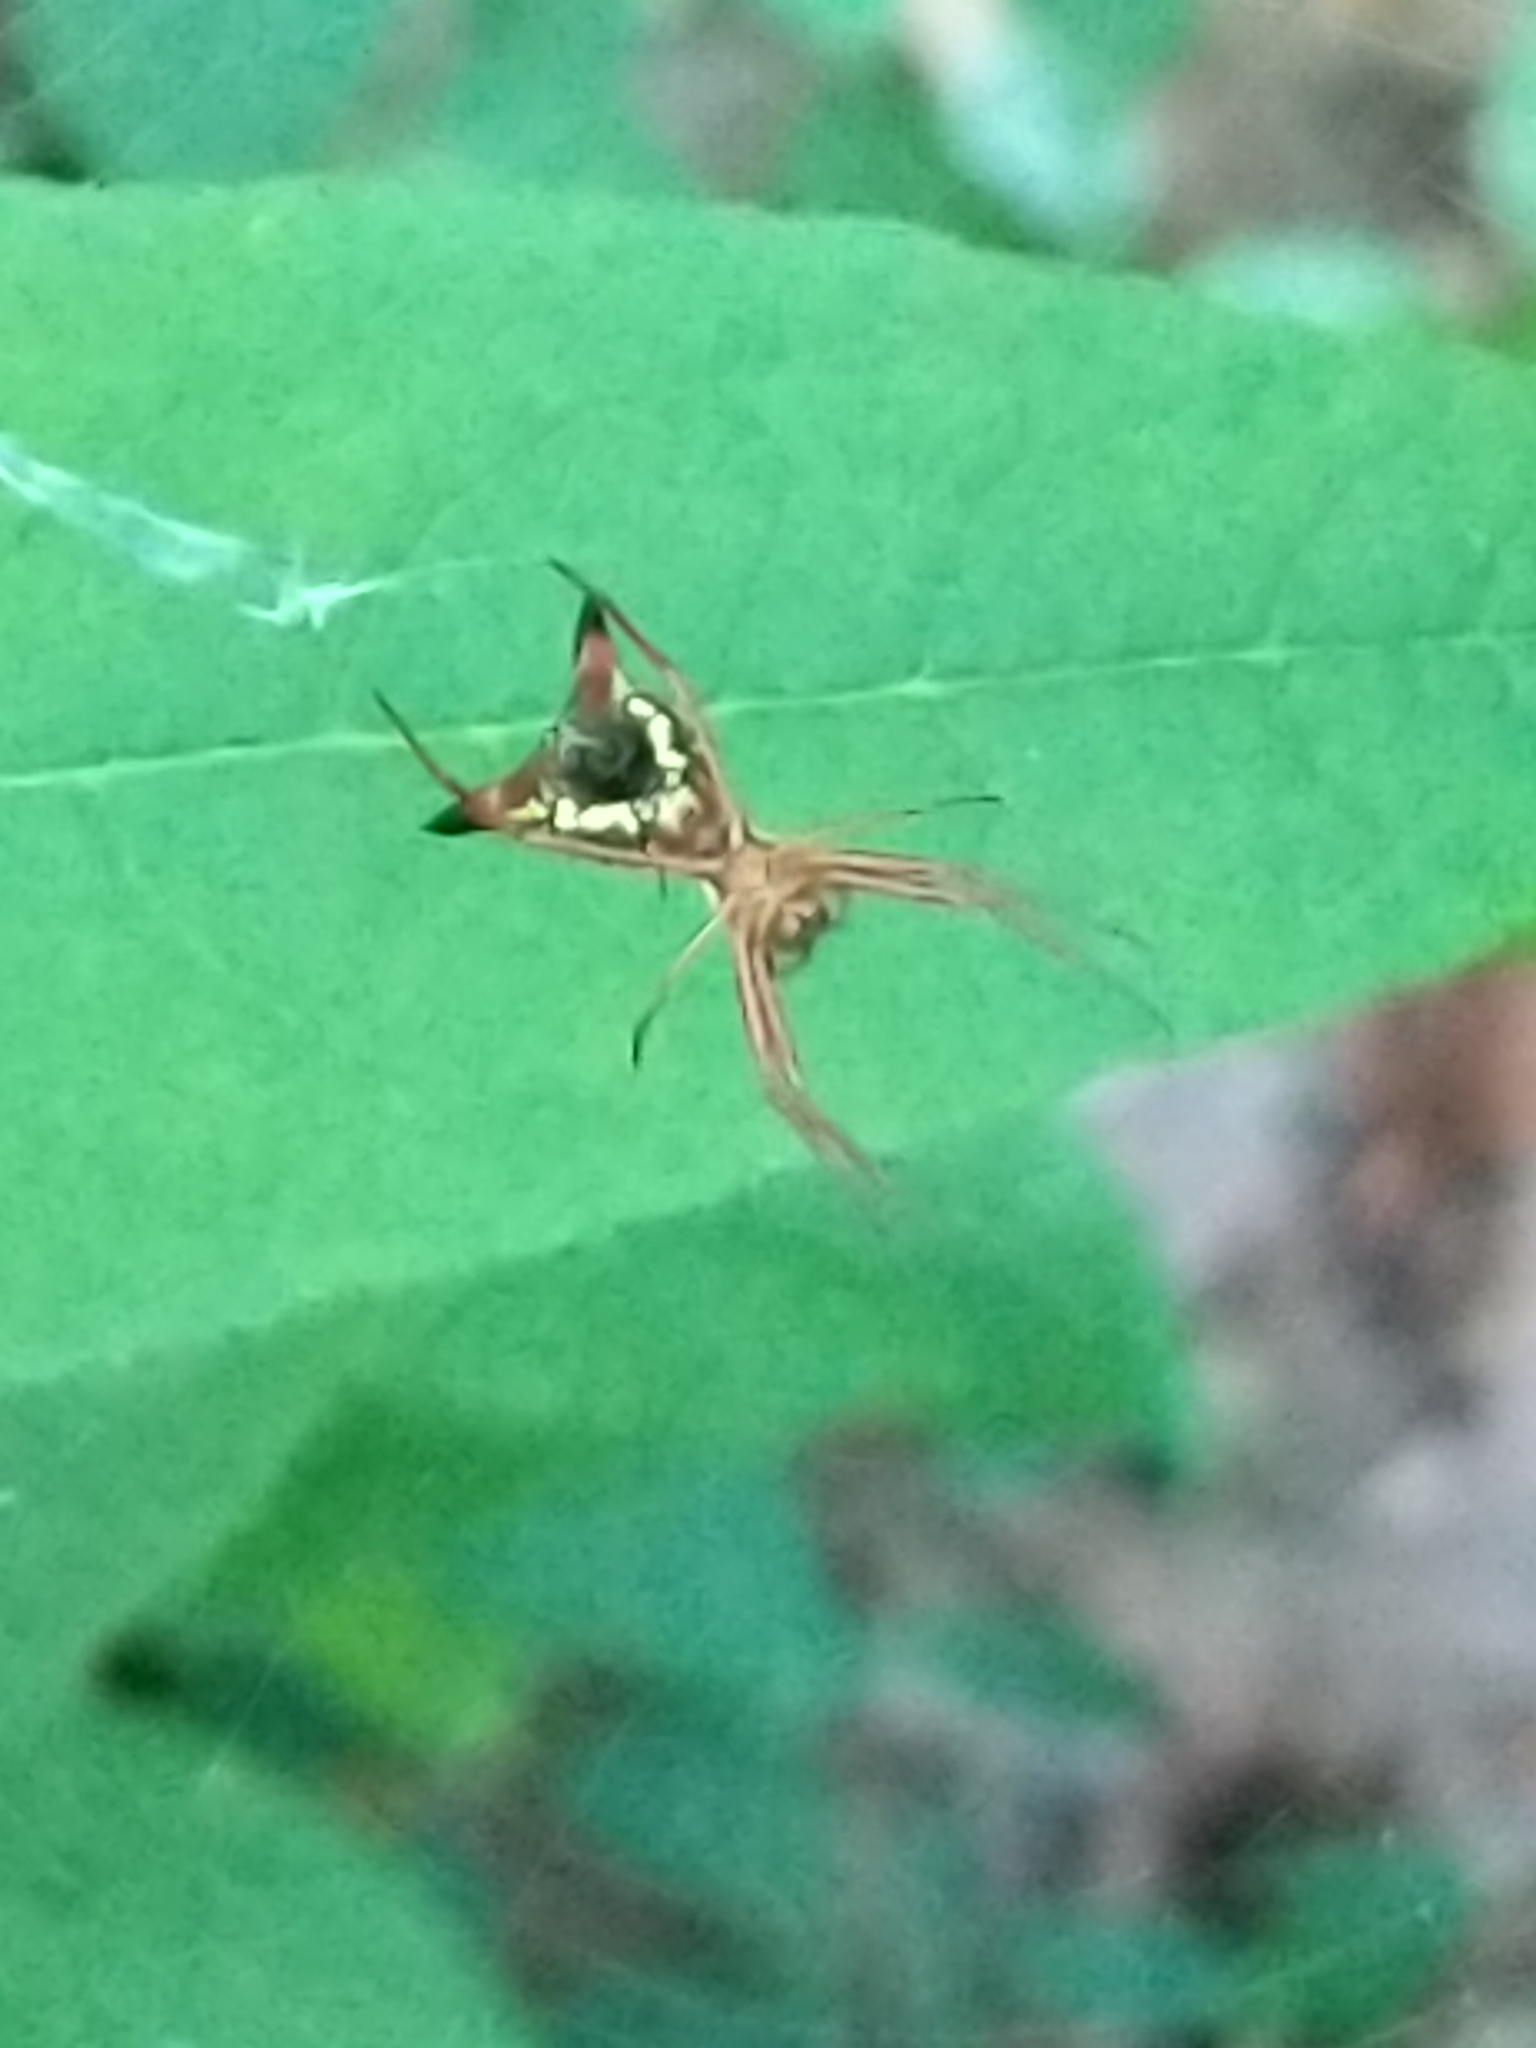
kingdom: Animalia
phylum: Arthropoda
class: Arachnida
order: Araneae
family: Araneidae
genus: Micrathena
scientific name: Micrathena sagittata
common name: Orb weavers
